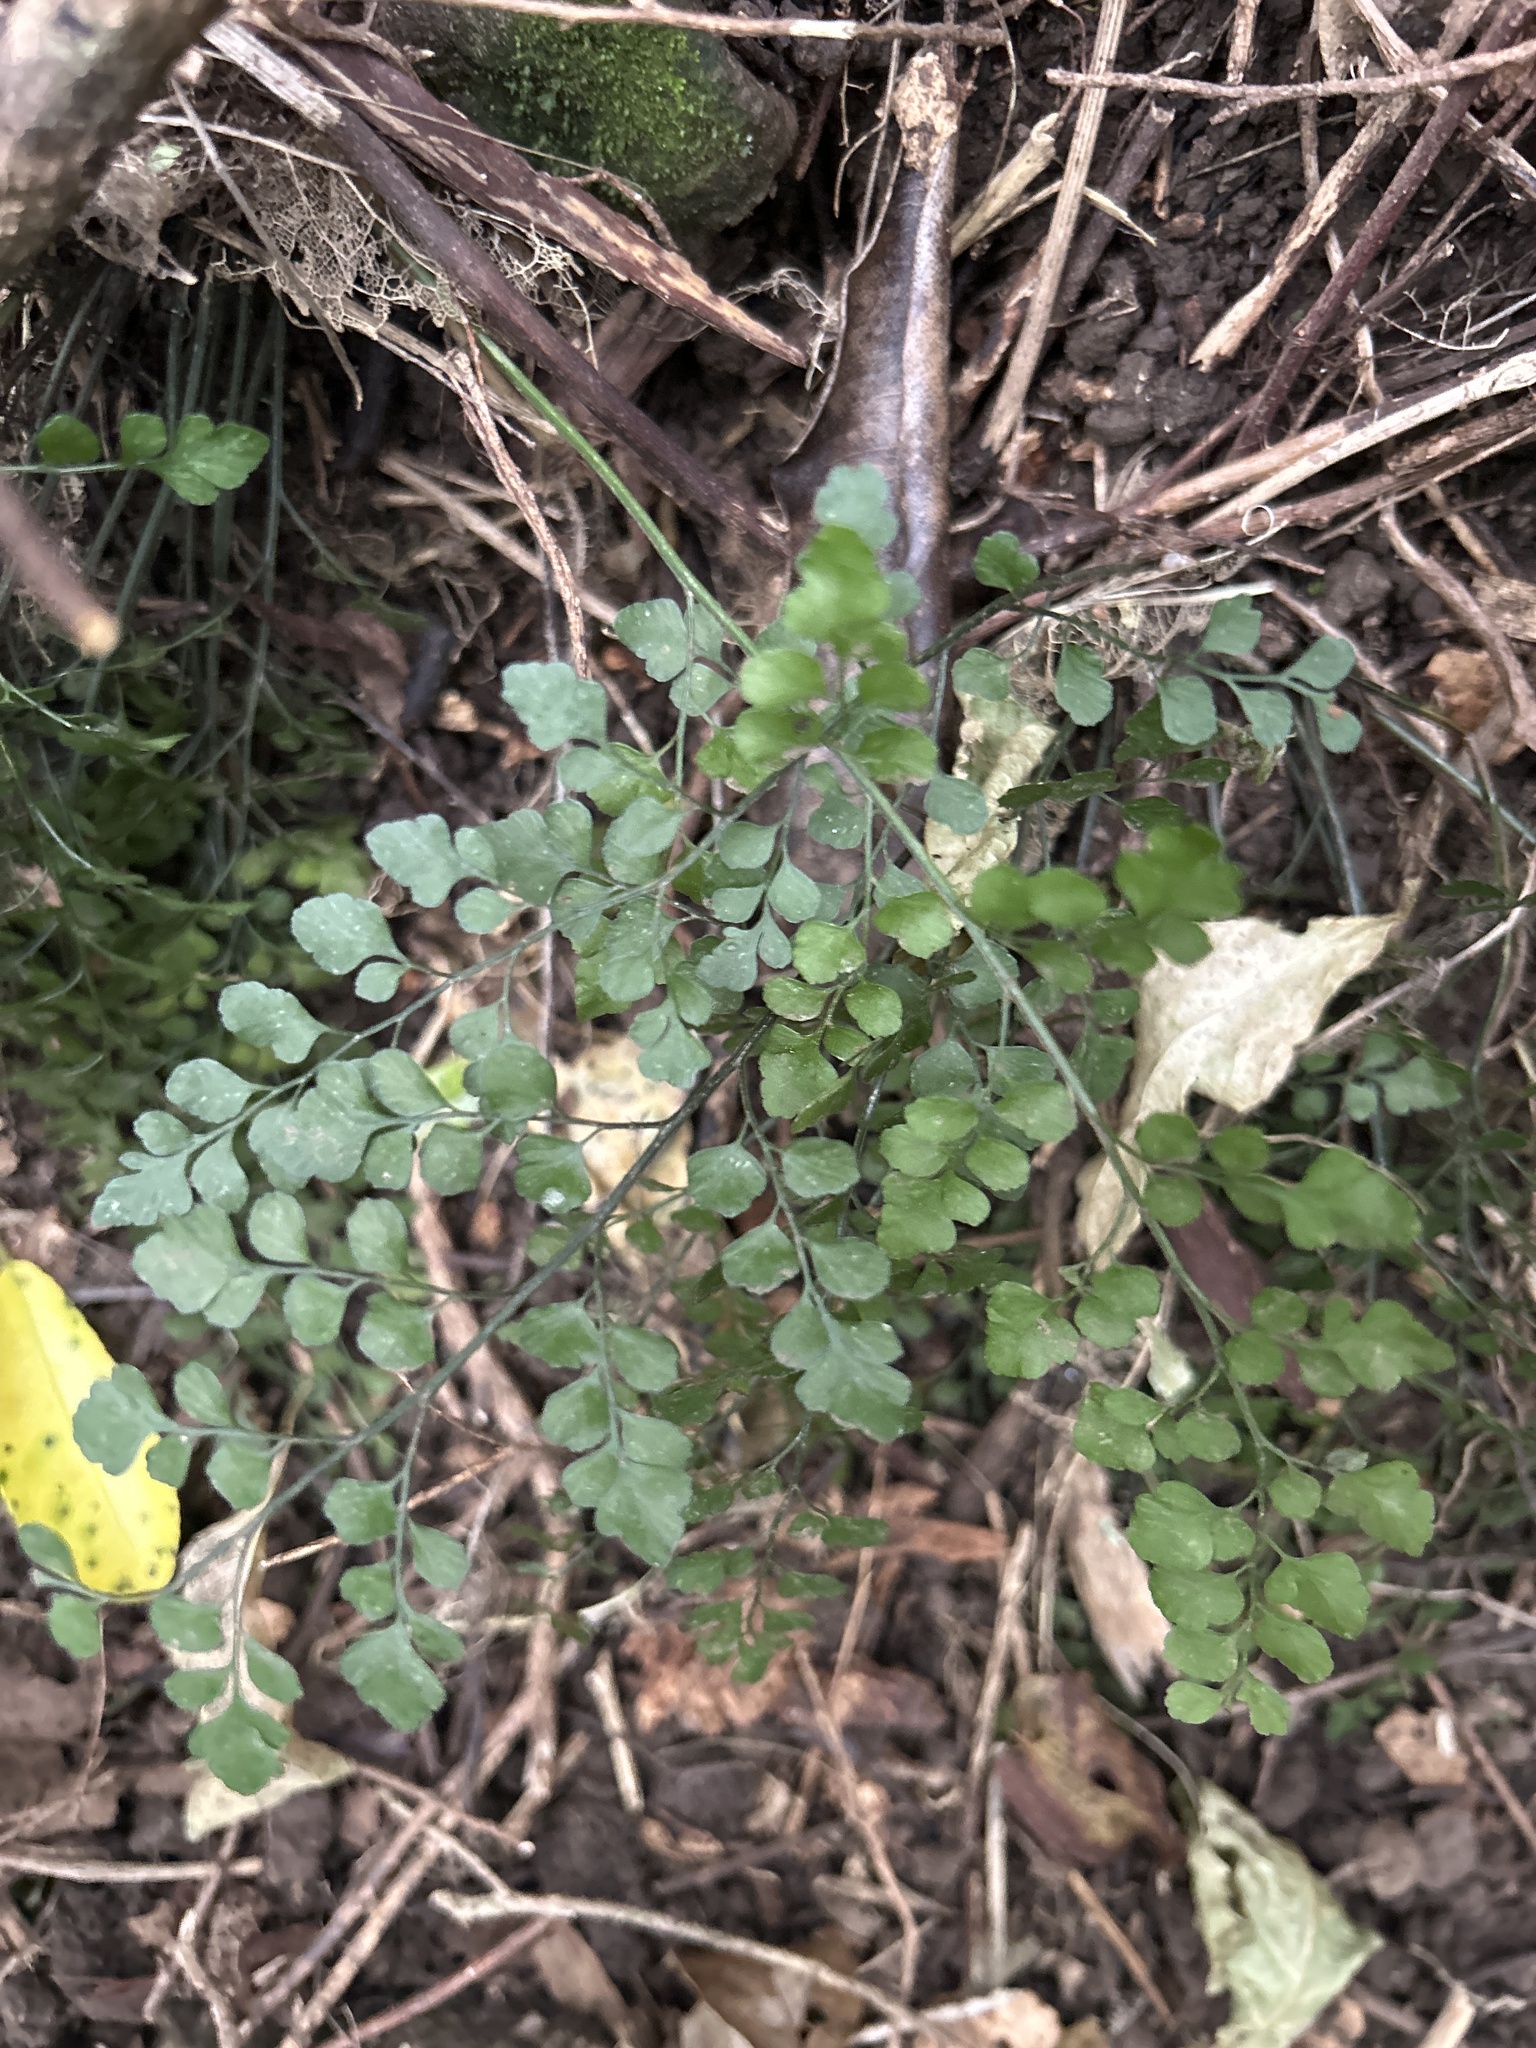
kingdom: Plantae
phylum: Tracheophyta
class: Polypodiopsida
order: Polypodiales
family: Aspleniaceae
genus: Asplenium
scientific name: Asplenium hookerianum
